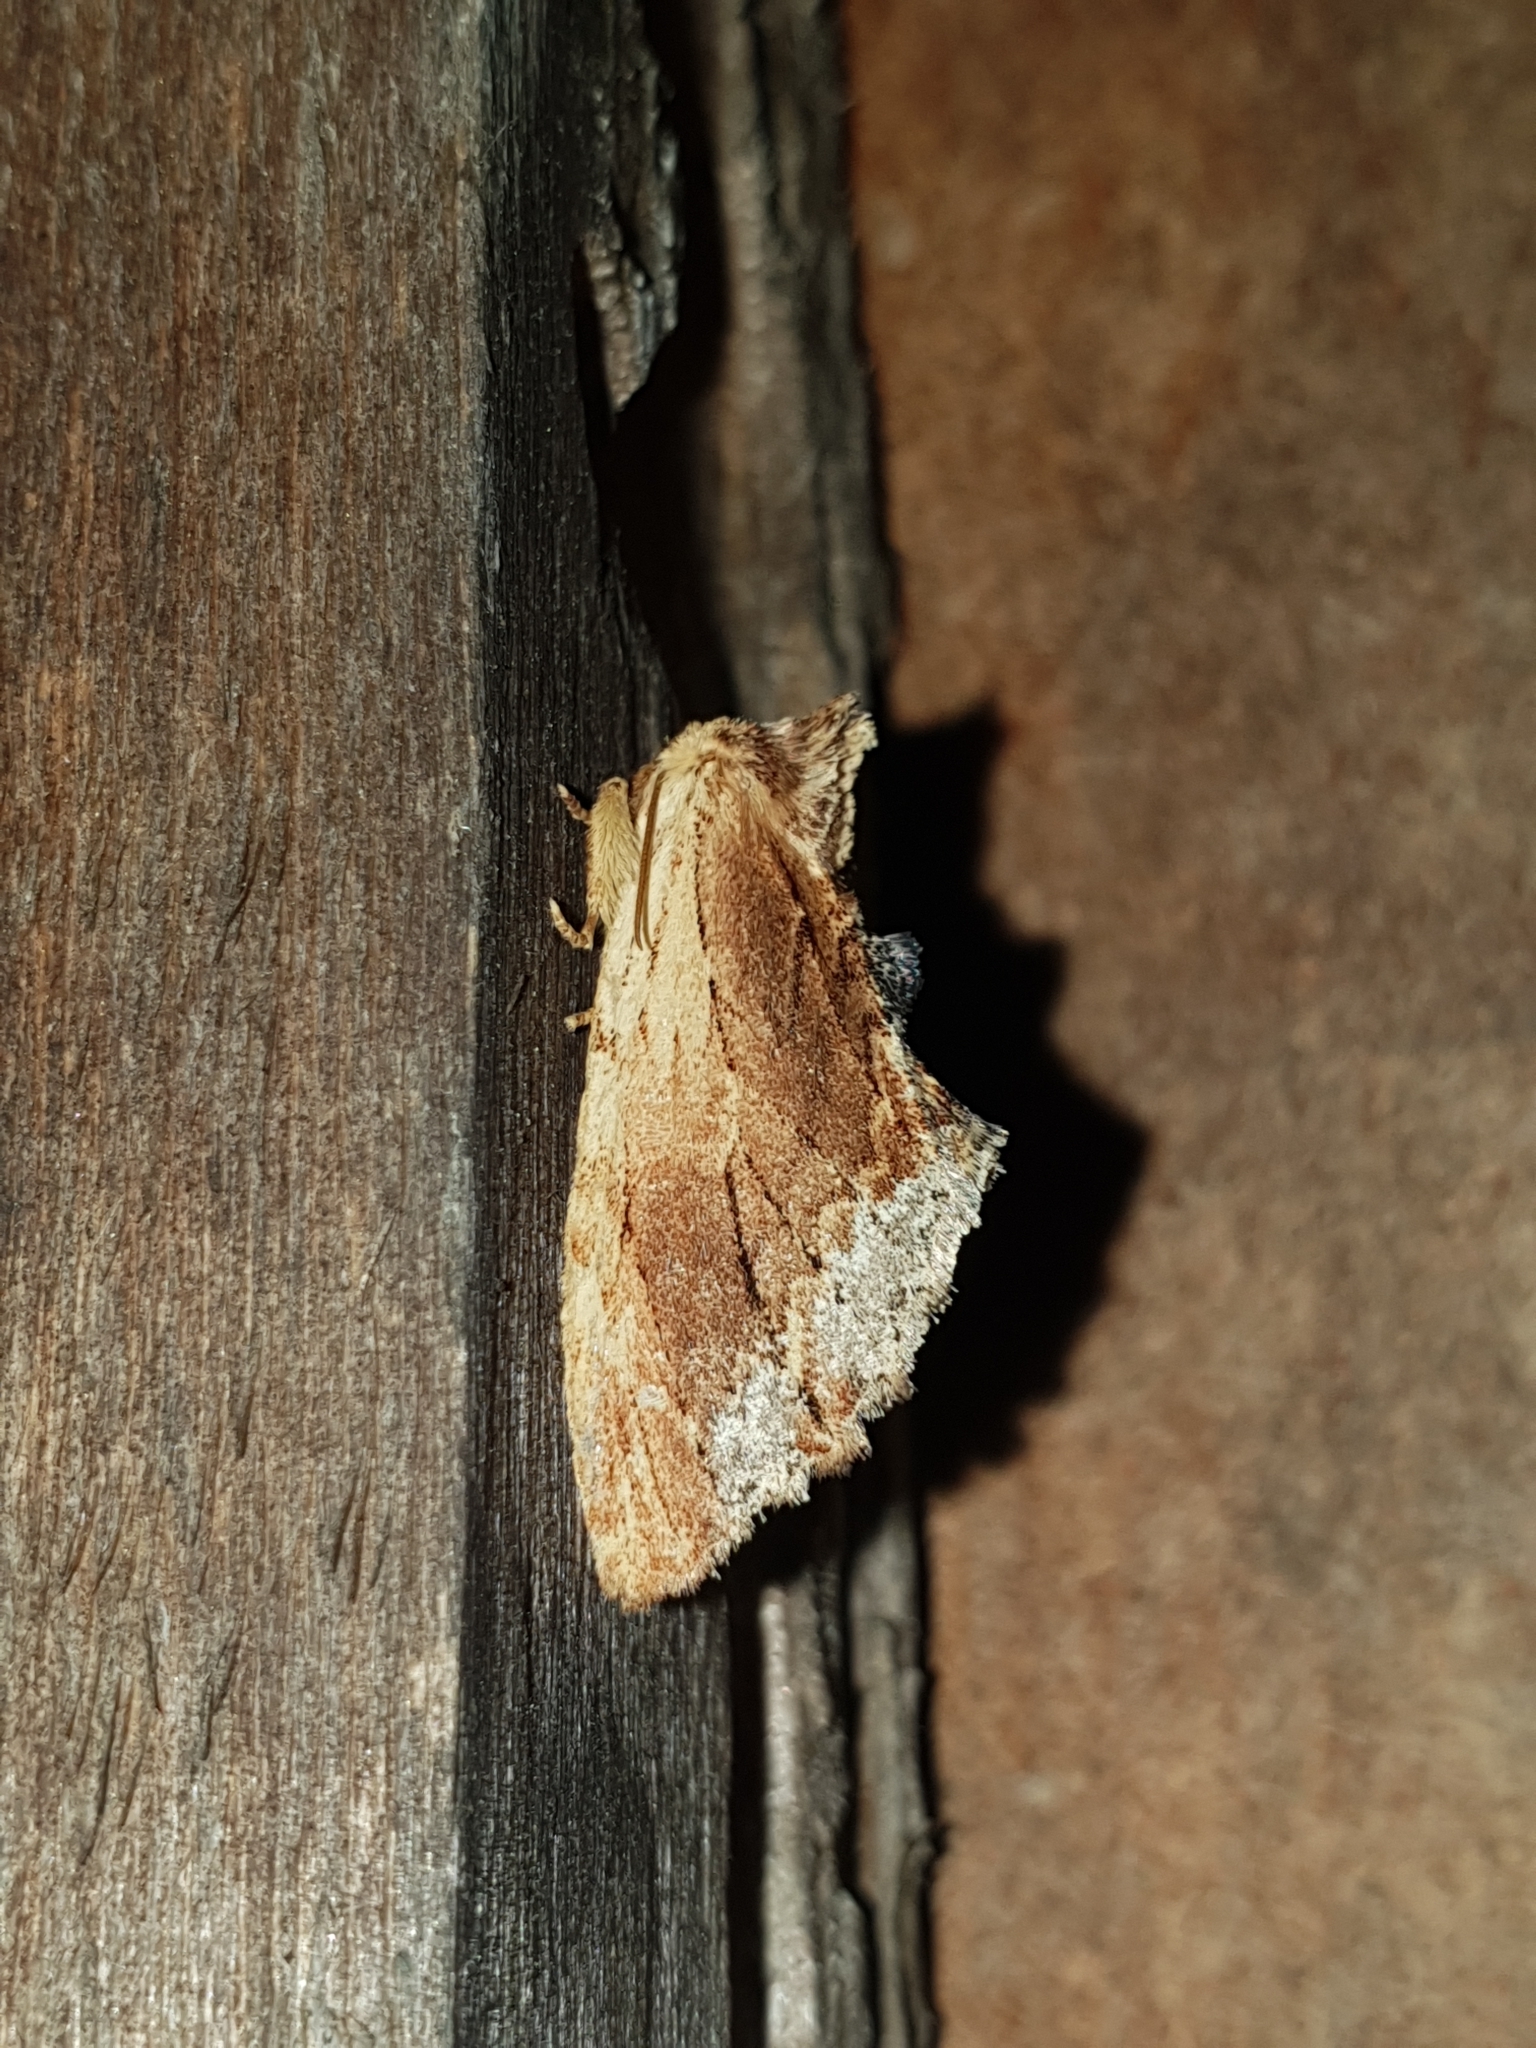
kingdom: Animalia
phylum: Arthropoda
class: Insecta
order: Lepidoptera
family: Notodontidae
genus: Ptilodon
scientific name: Ptilodon cucullina
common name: Maple prominent
